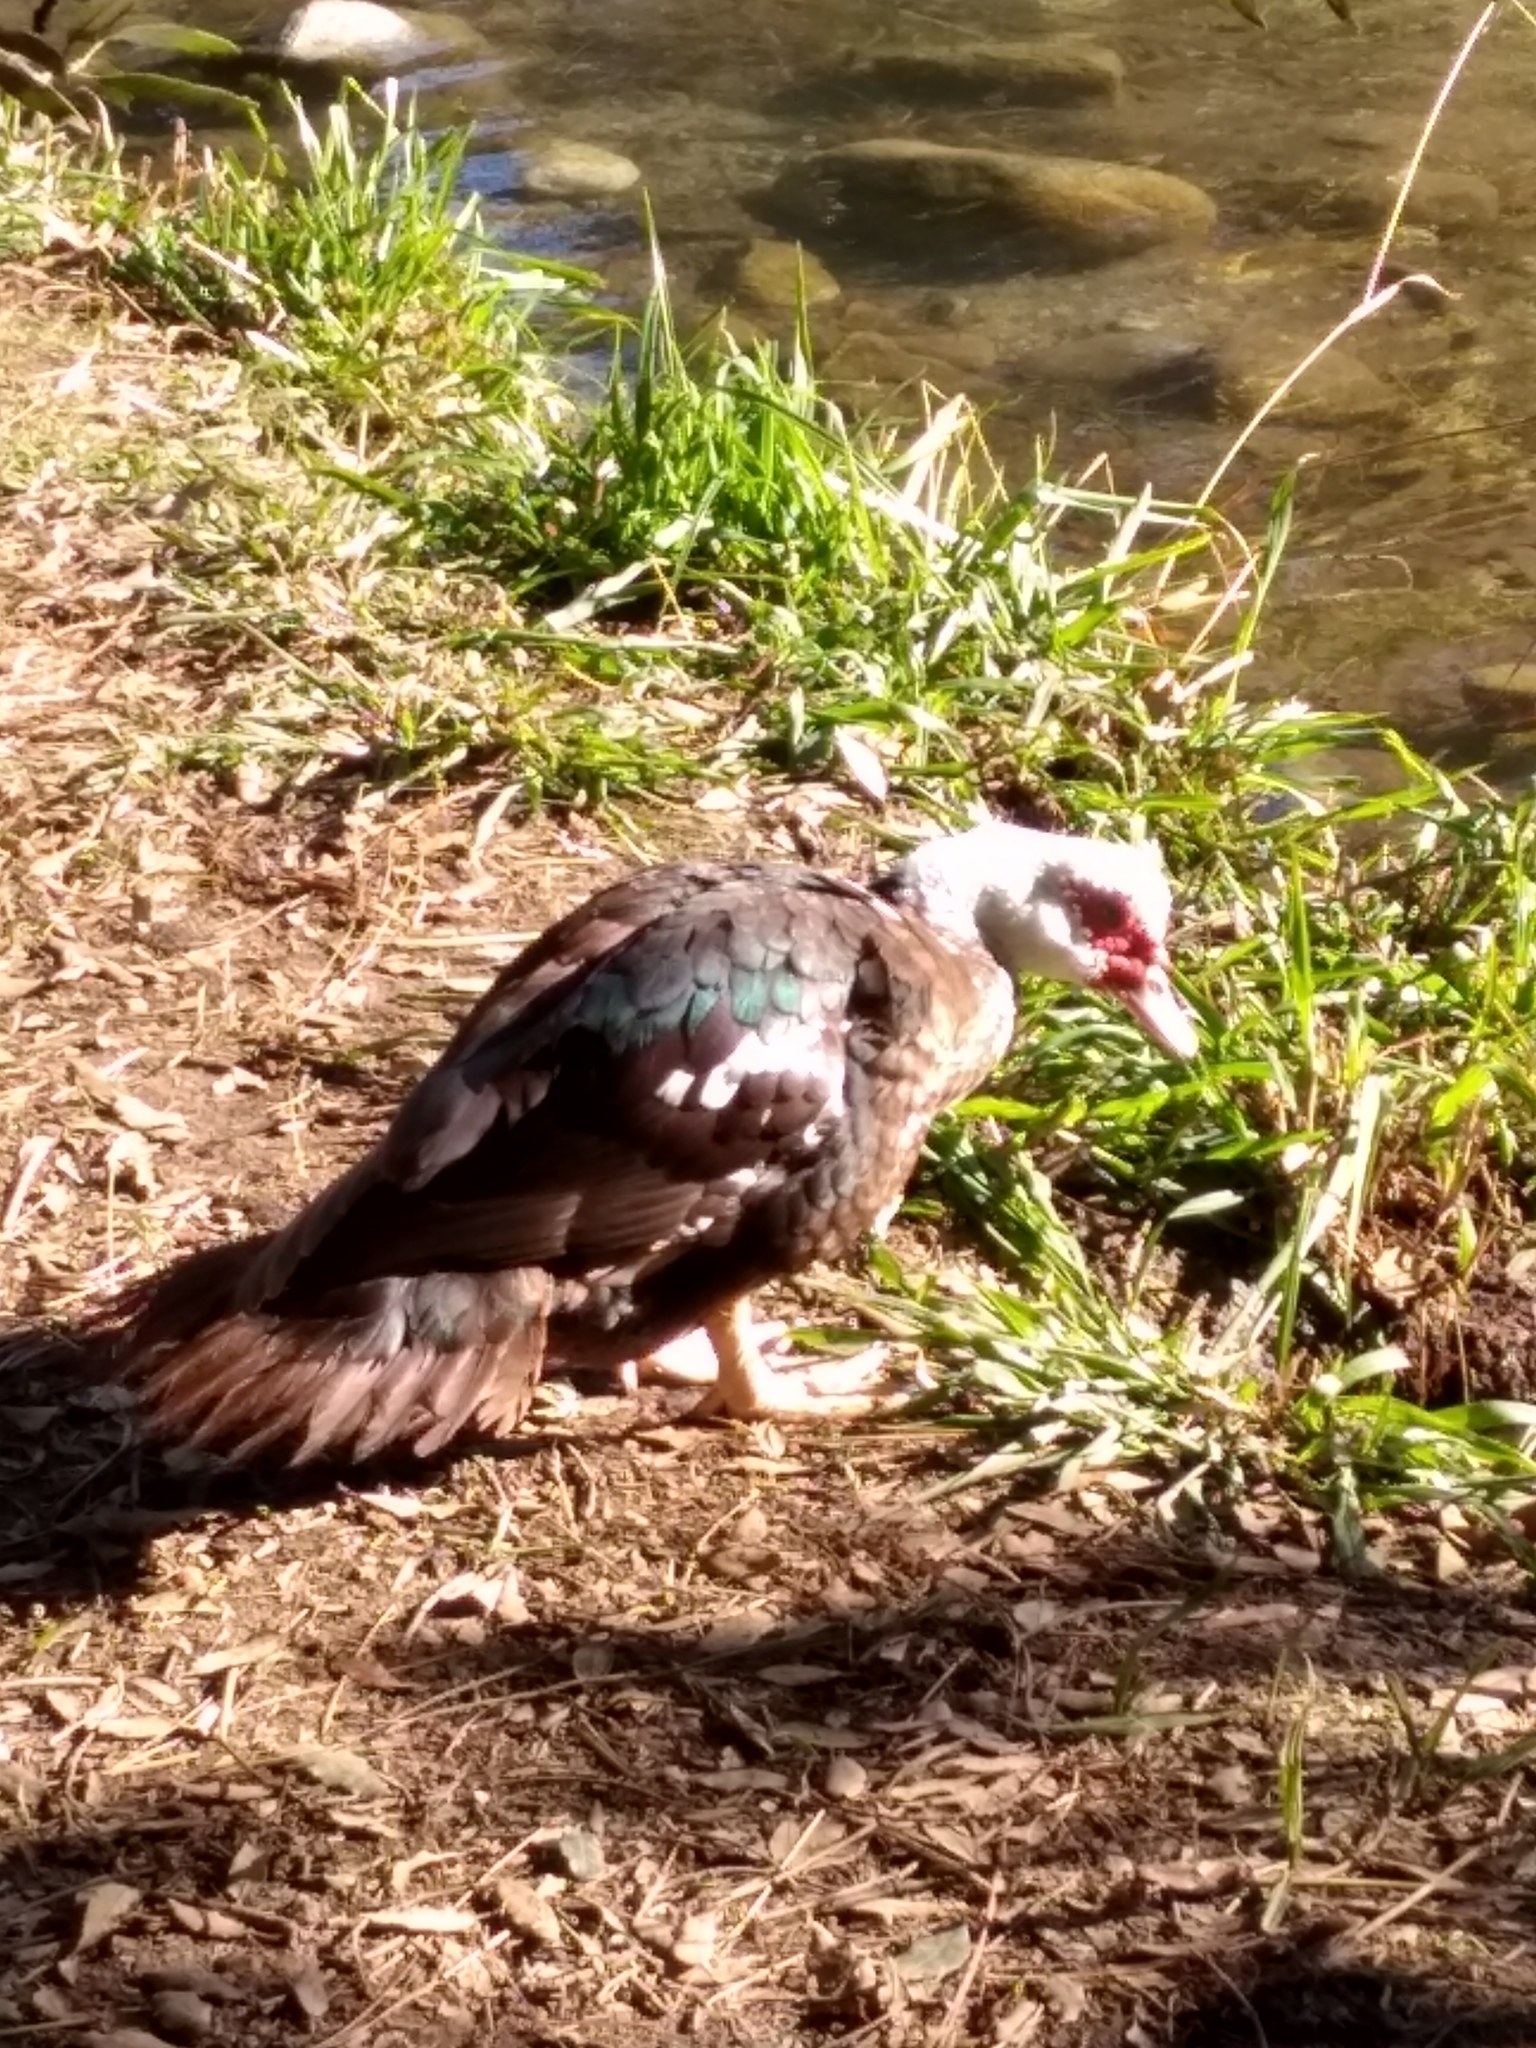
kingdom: Animalia
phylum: Chordata
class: Aves
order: Anseriformes
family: Anatidae
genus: Cairina
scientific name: Cairina moschata
